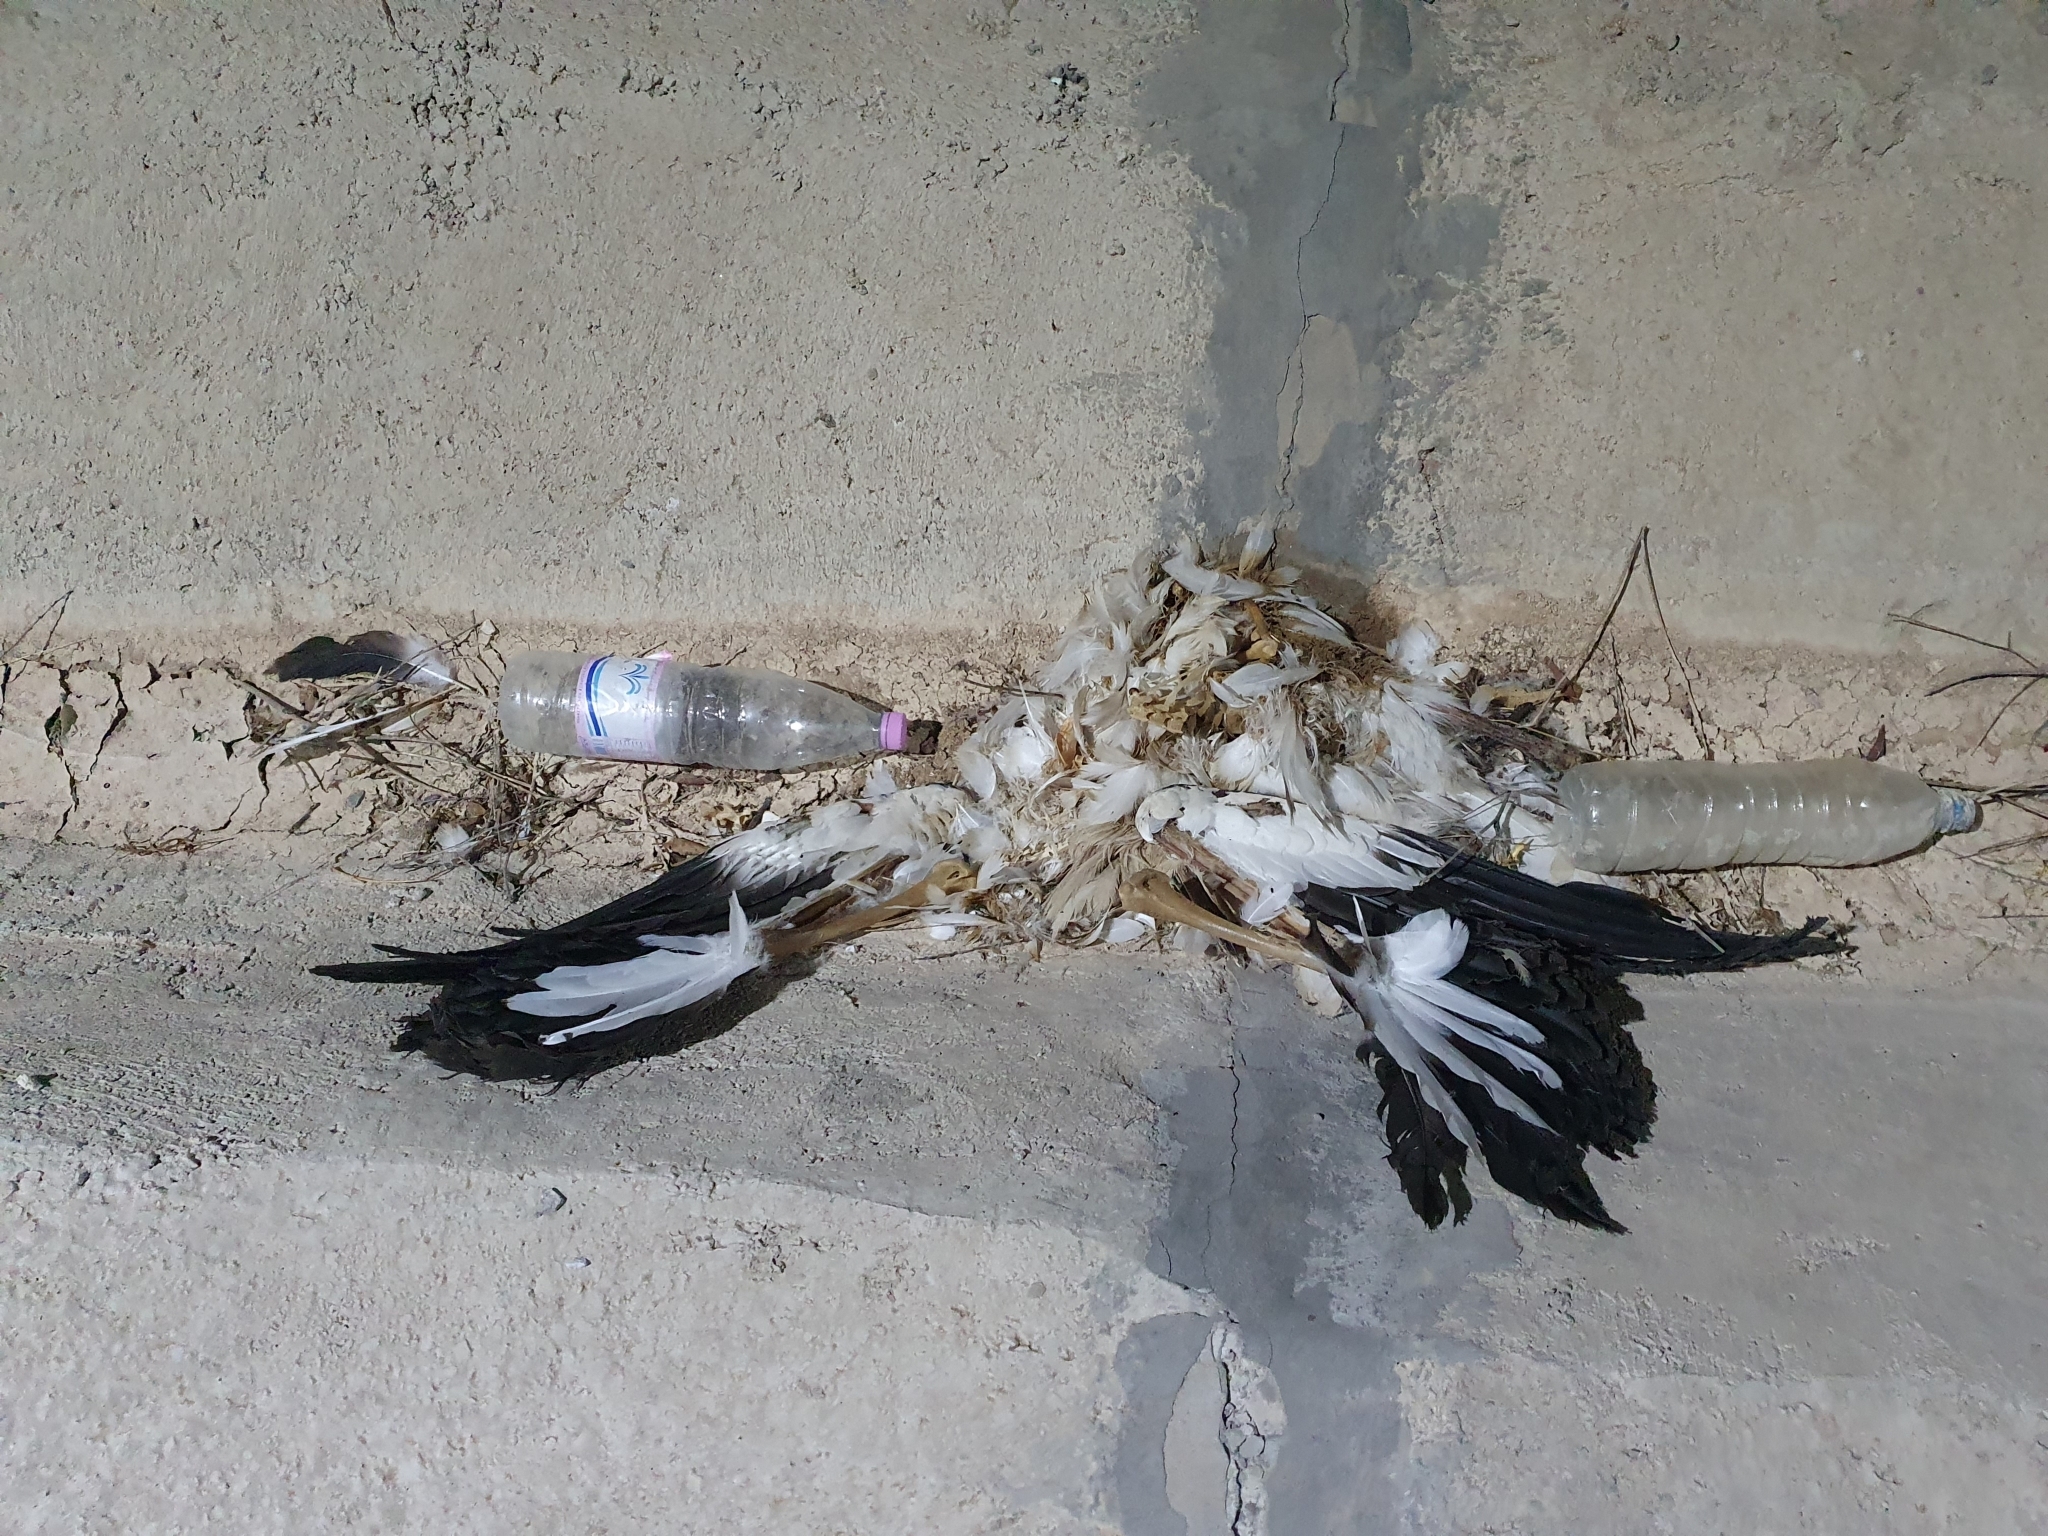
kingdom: Animalia
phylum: Chordata
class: Aves
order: Ciconiiformes
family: Ciconiidae
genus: Ciconia
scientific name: Ciconia ciconia
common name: White stork
